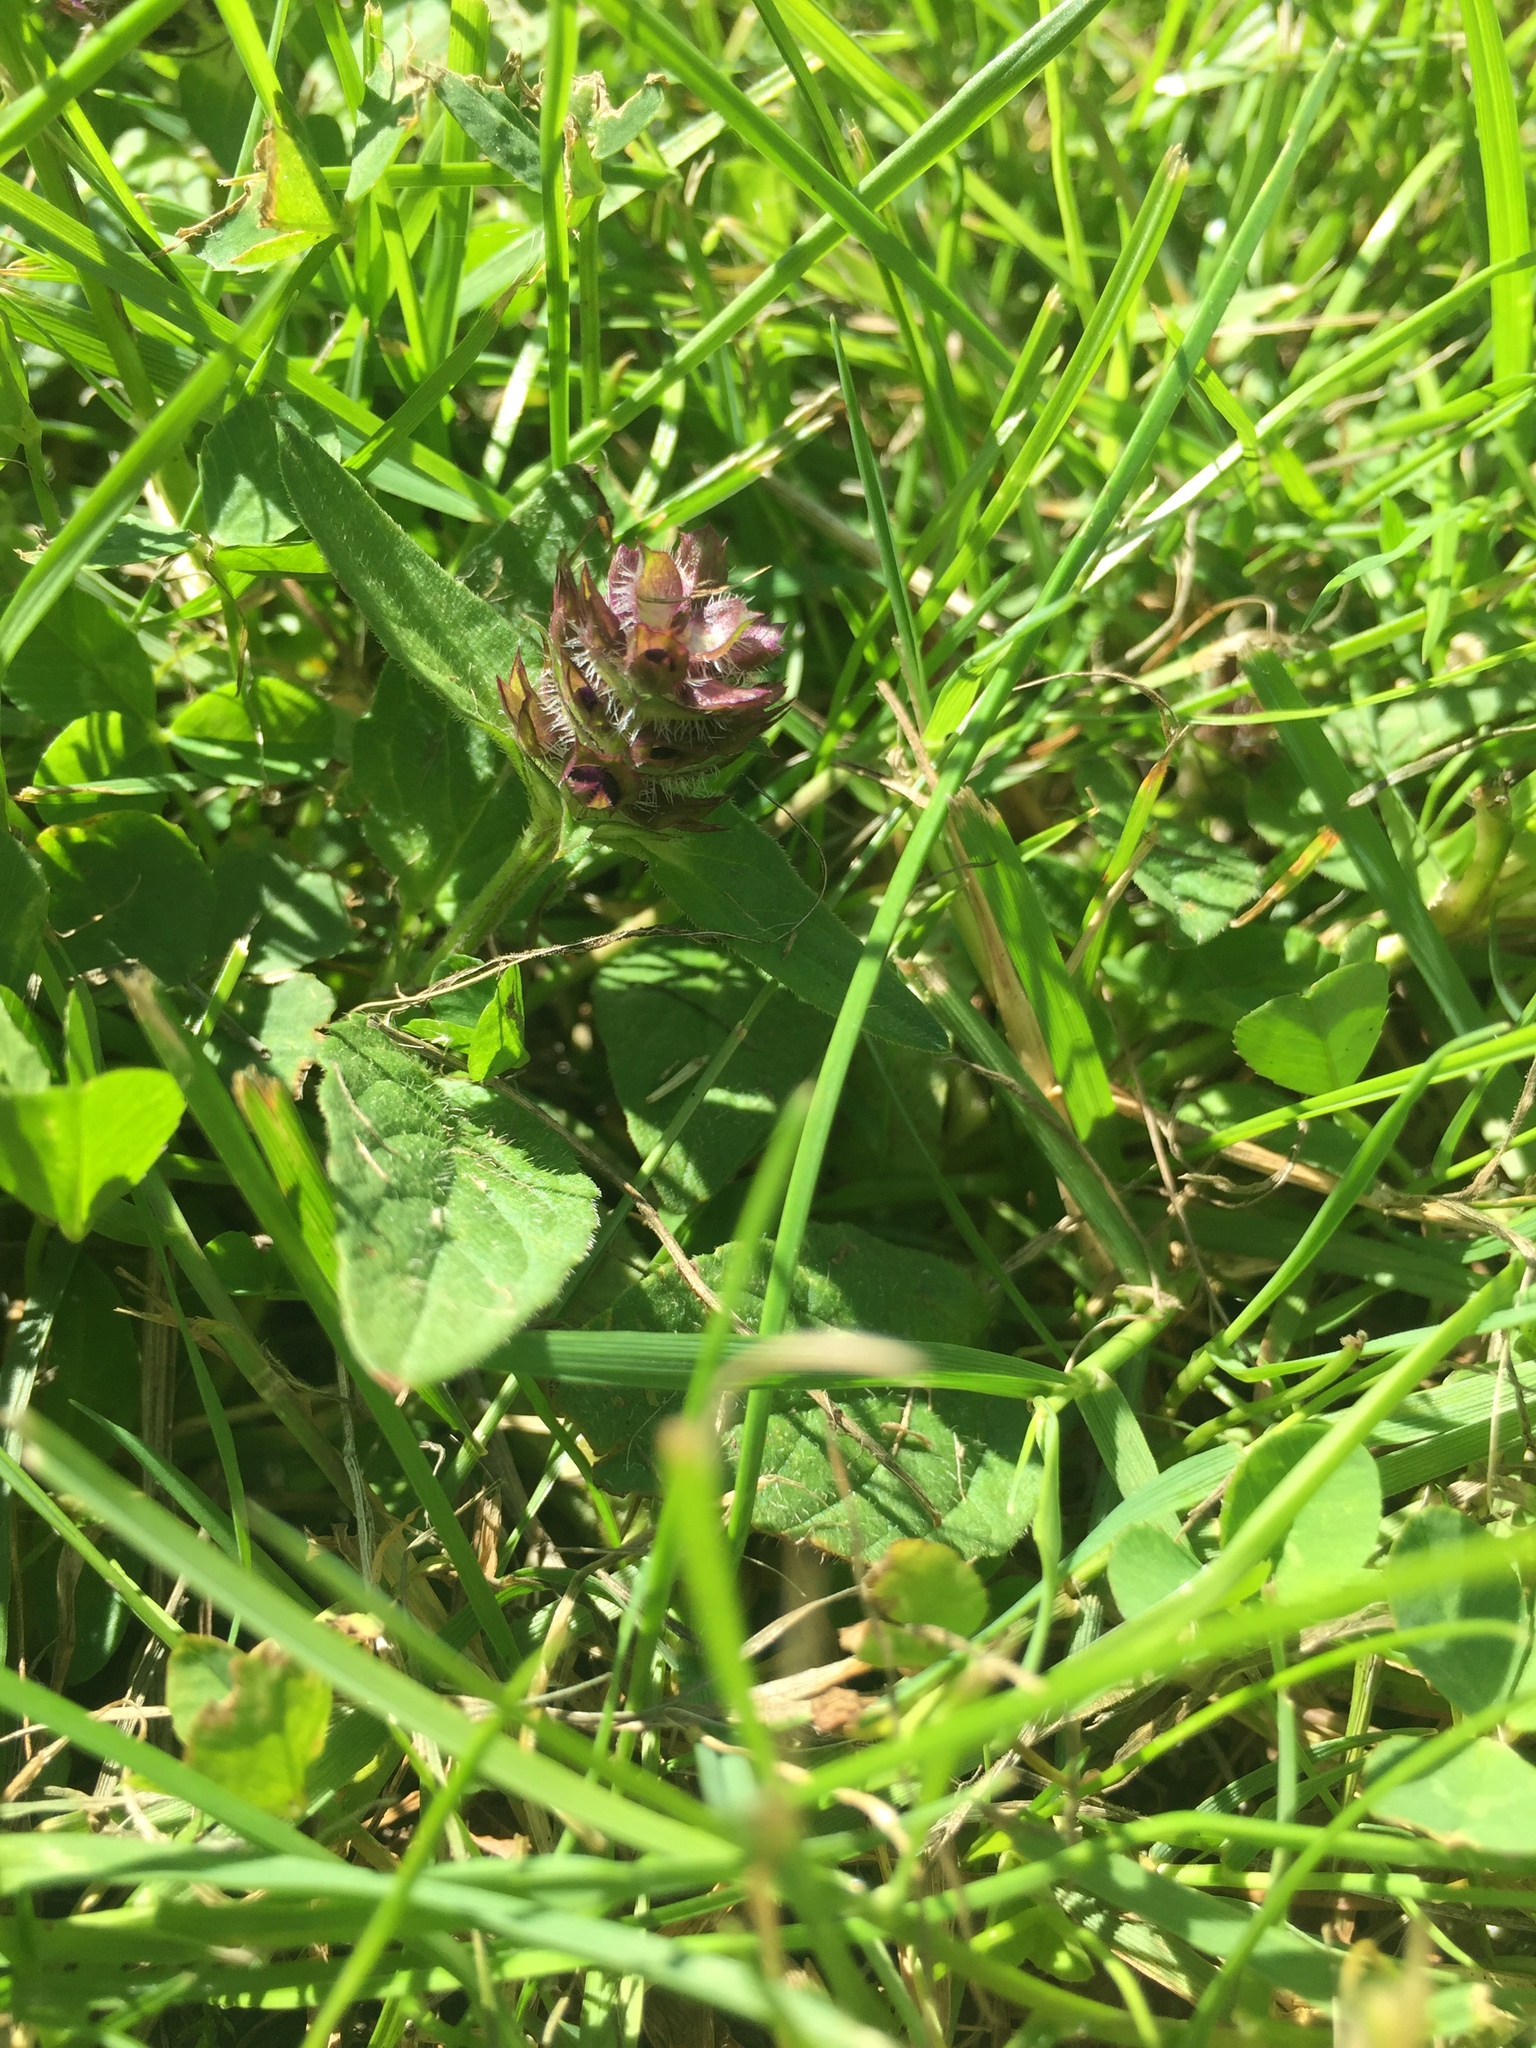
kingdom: Plantae
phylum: Tracheophyta
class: Magnoliopsida
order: Lamiales
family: Lamiaceae
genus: Prunella
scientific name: Prunella vulgaris
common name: Heal-all
